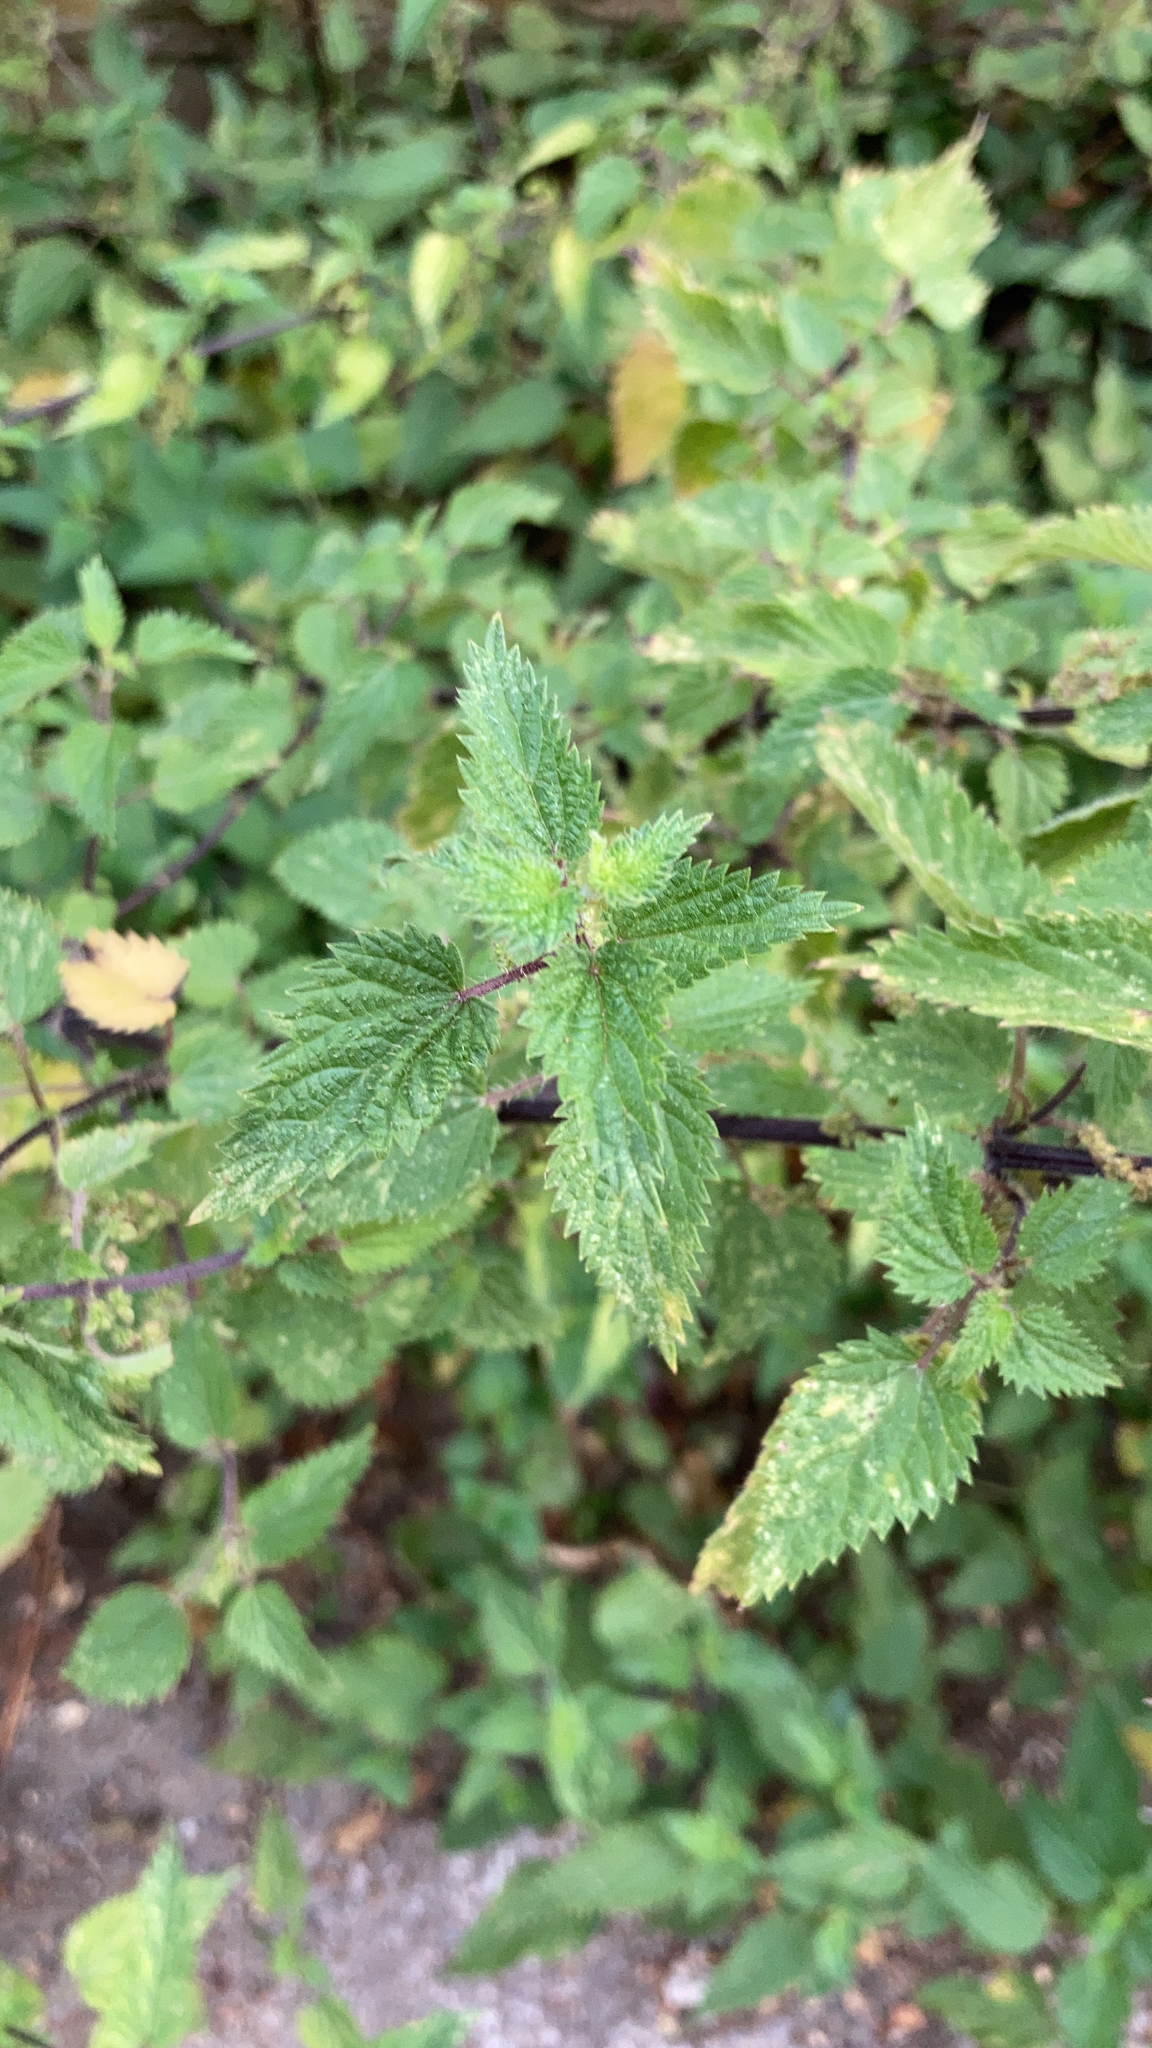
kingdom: Plantae
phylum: Tracheophyta
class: Magnoliopsida
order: Rosales
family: Urticaceae
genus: Urtica
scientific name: Urtica dioica
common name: Common nettle
